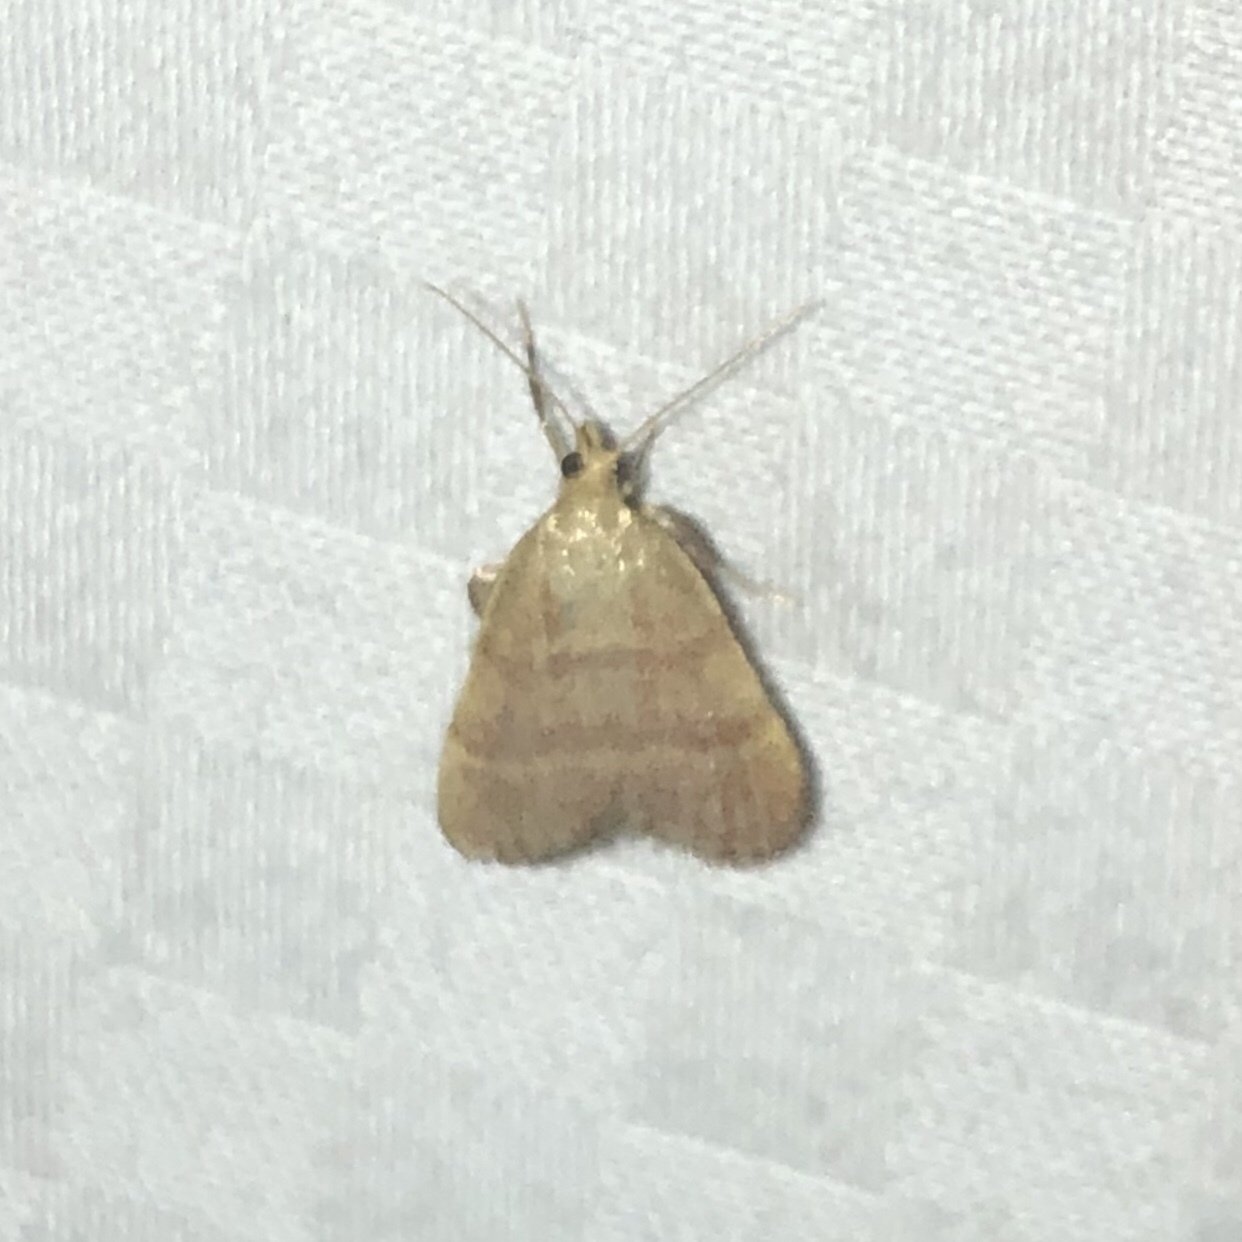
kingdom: Animalia
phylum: Arthropoda
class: Insecta
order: Lepidoptera
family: Pyralidae
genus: Condylolomia
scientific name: Condylolomia participialis
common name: Drab condylolomia moth
